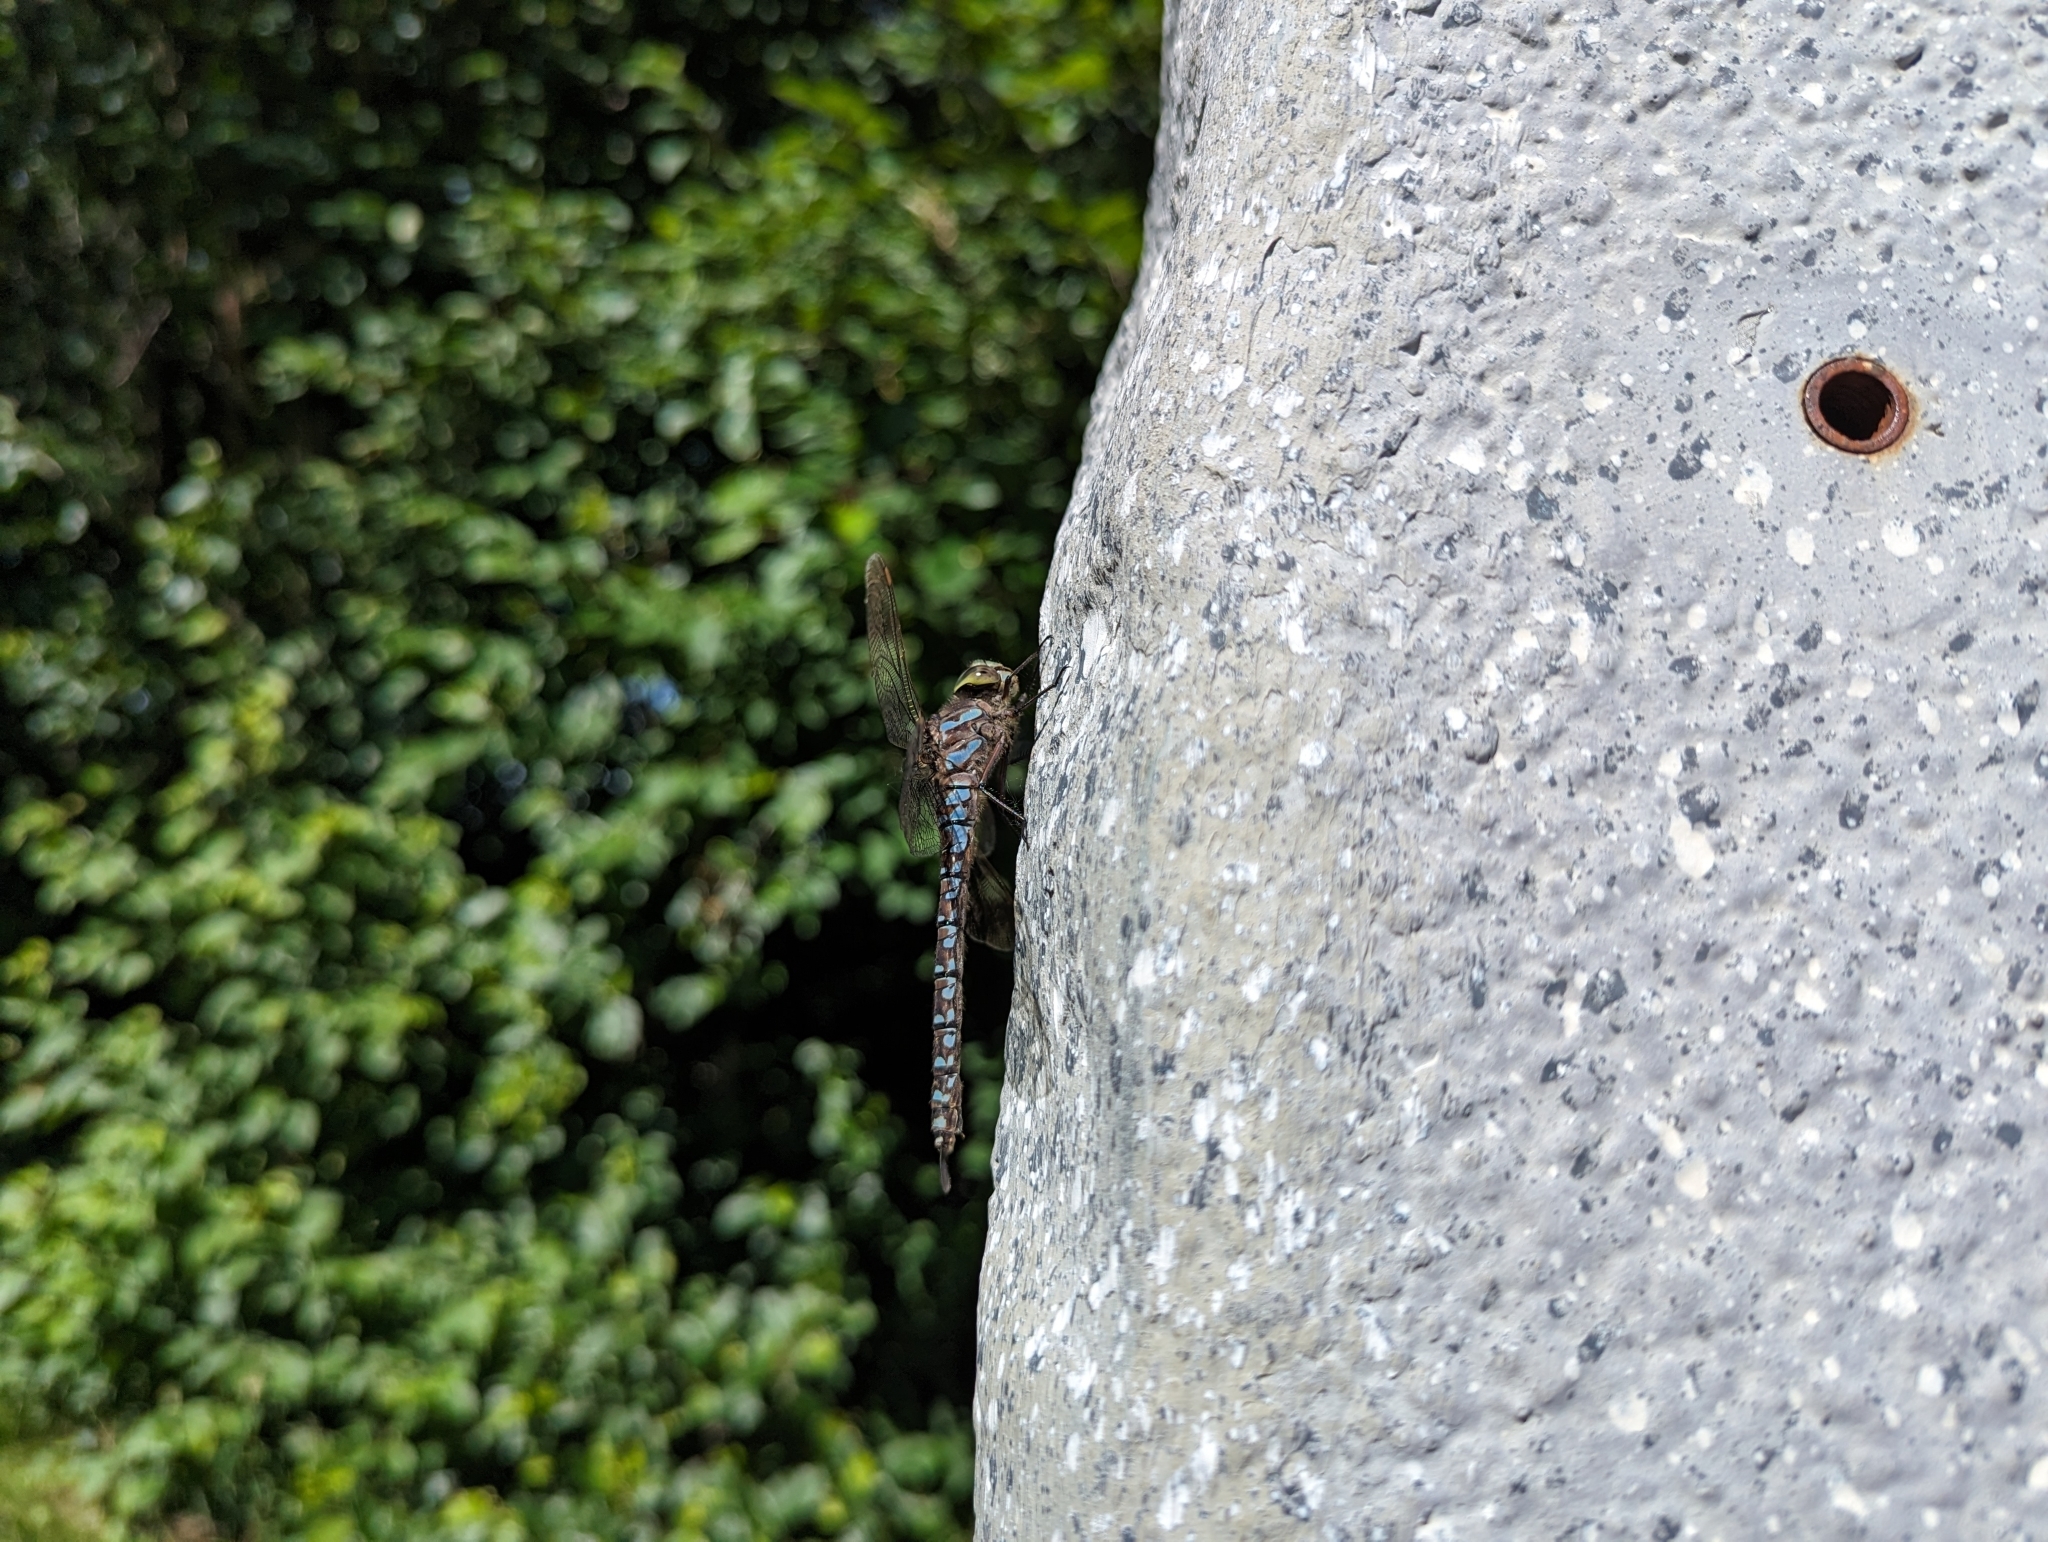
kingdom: Animalia
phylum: Arthropoda
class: Insecta
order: Odonata
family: Aeshnidae
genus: Aeshna
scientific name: Aeshna eremita
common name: Lake darner
